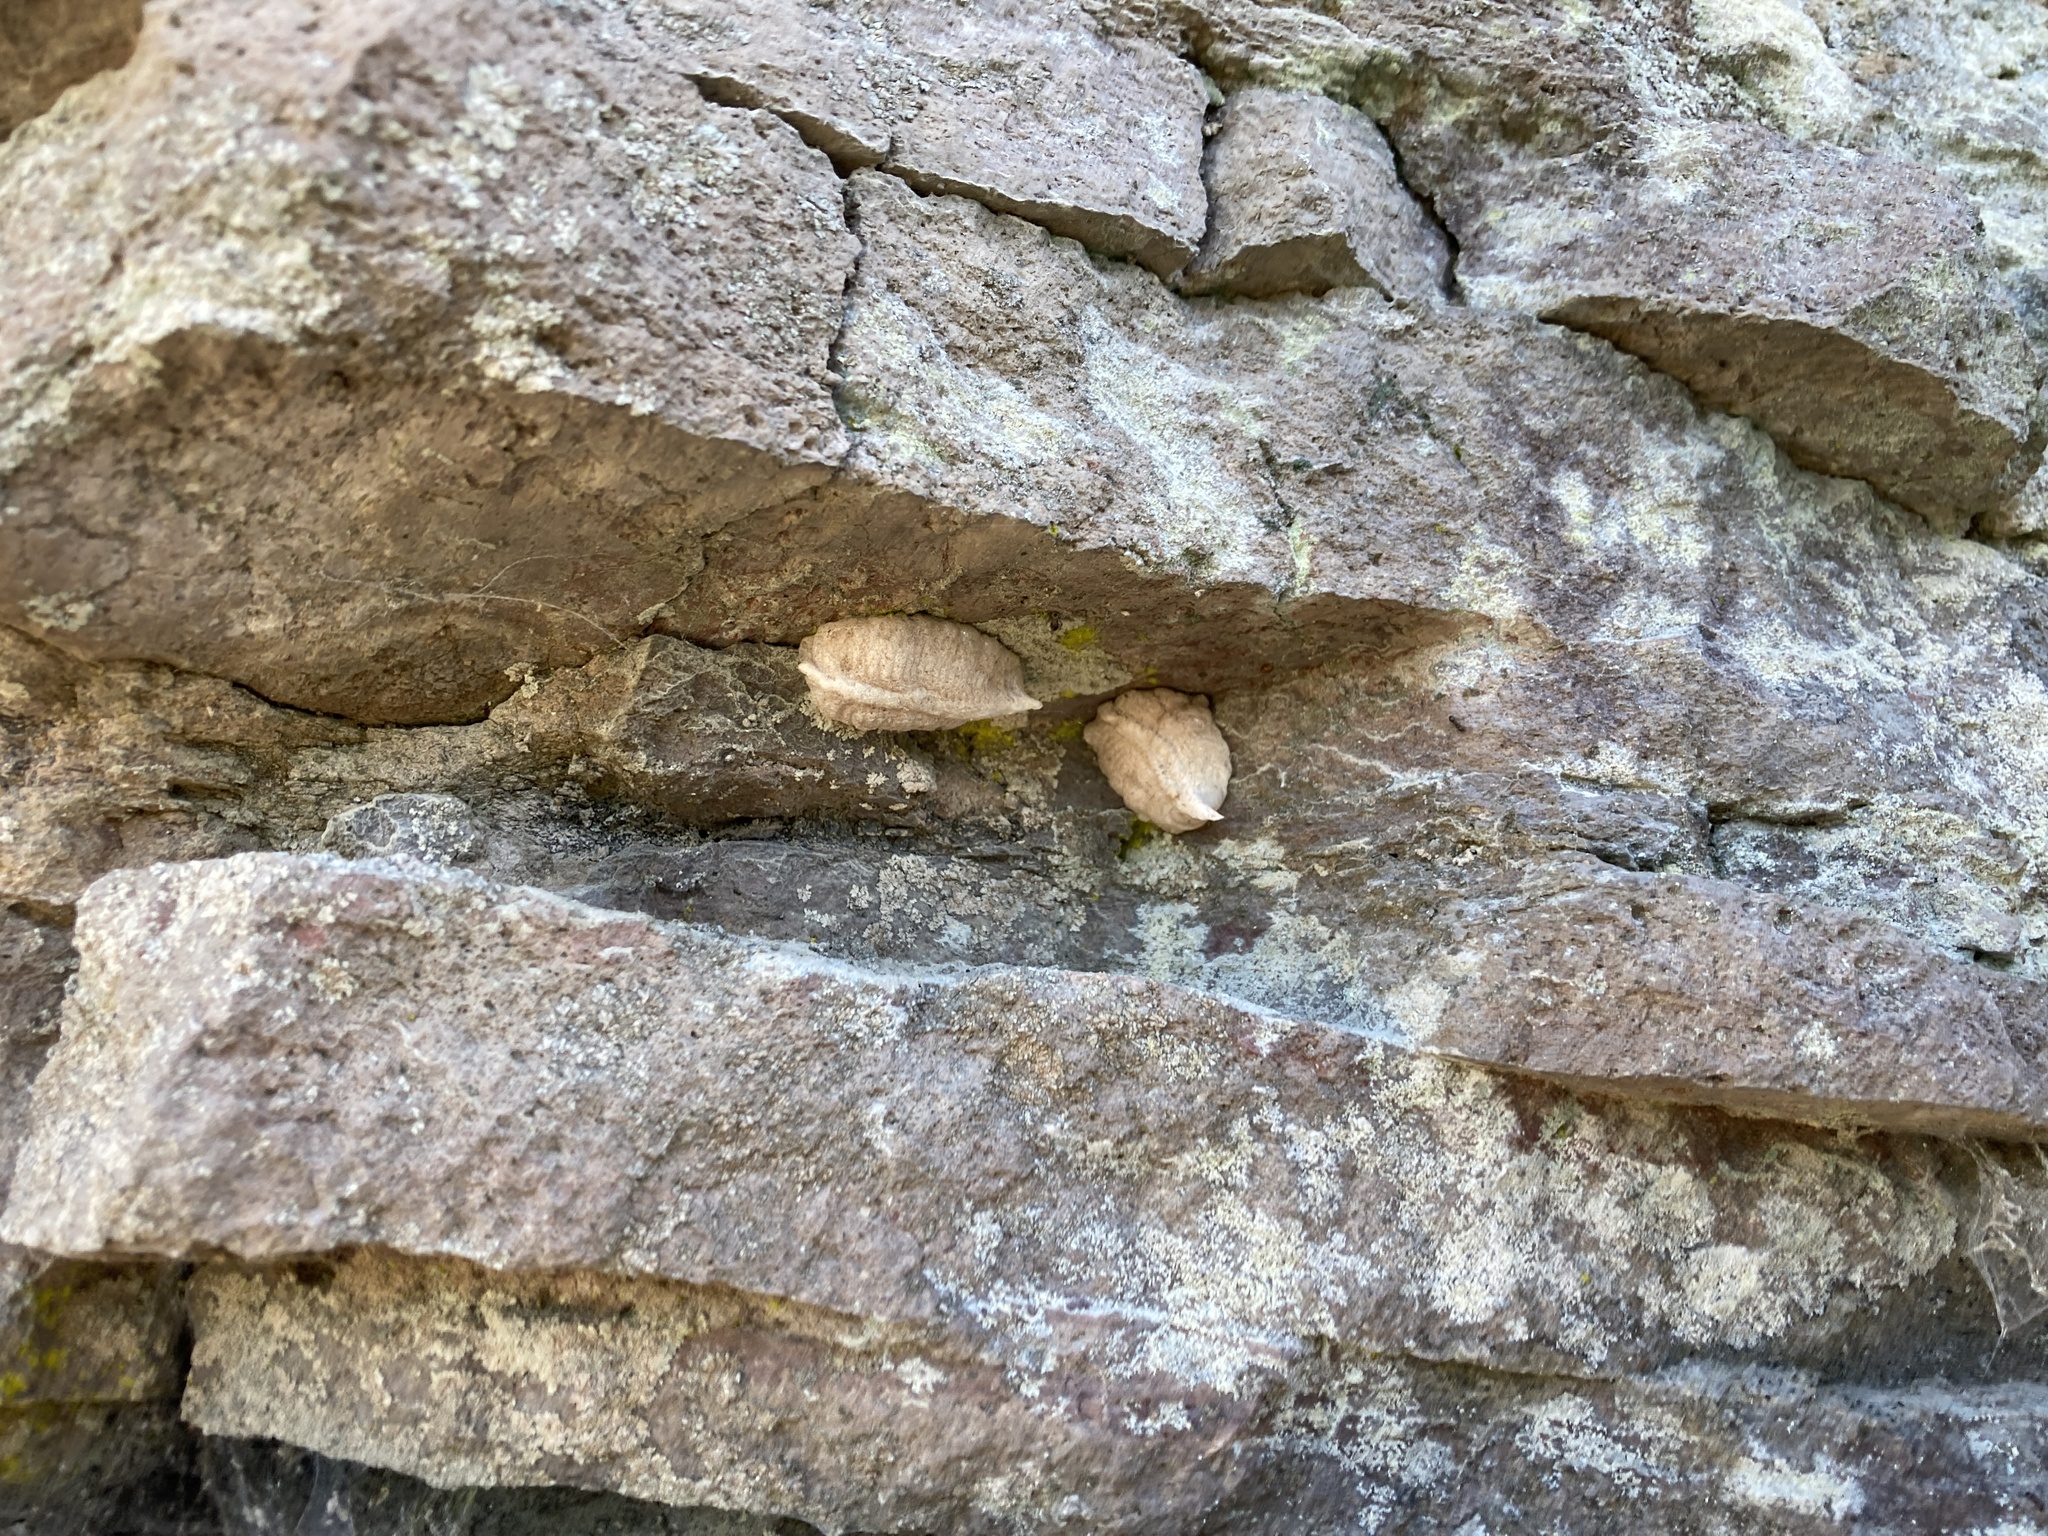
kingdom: Animalia
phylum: Arthropoda
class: Insecta
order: Mantodea
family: Miomantidae
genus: Miomantis
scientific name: Miomantis caffra
